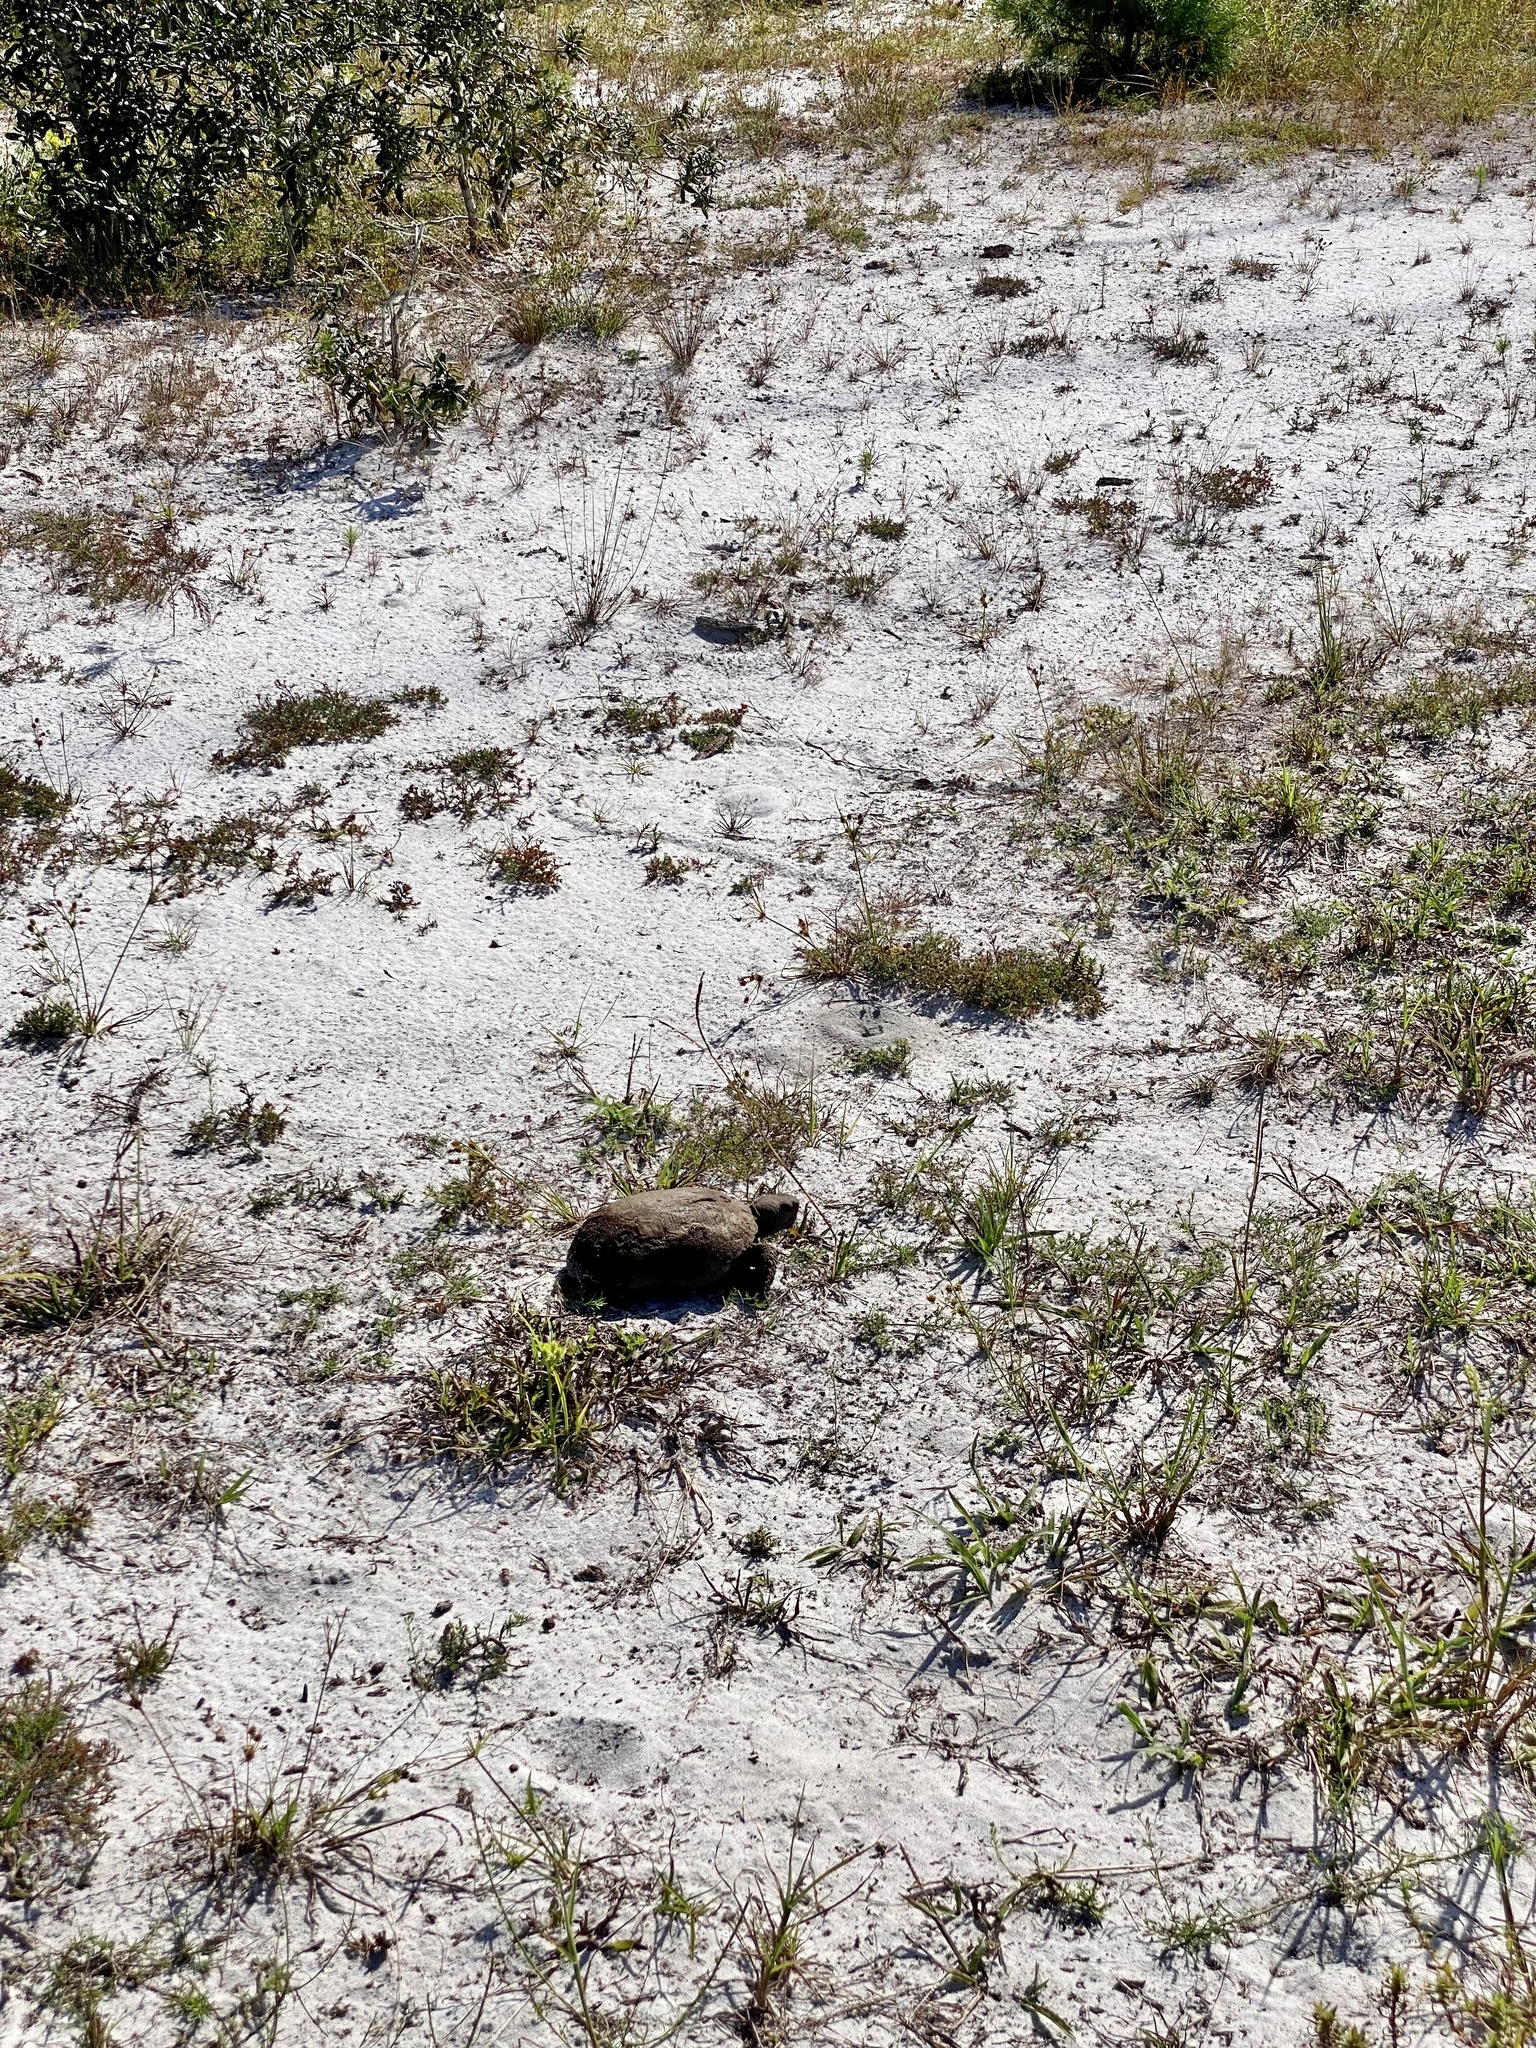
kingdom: Animalia
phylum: Chordata
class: Testudines
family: Testudinidae
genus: Gopherus
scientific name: Gopherus polyphemus
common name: Florida gopher tortoise
